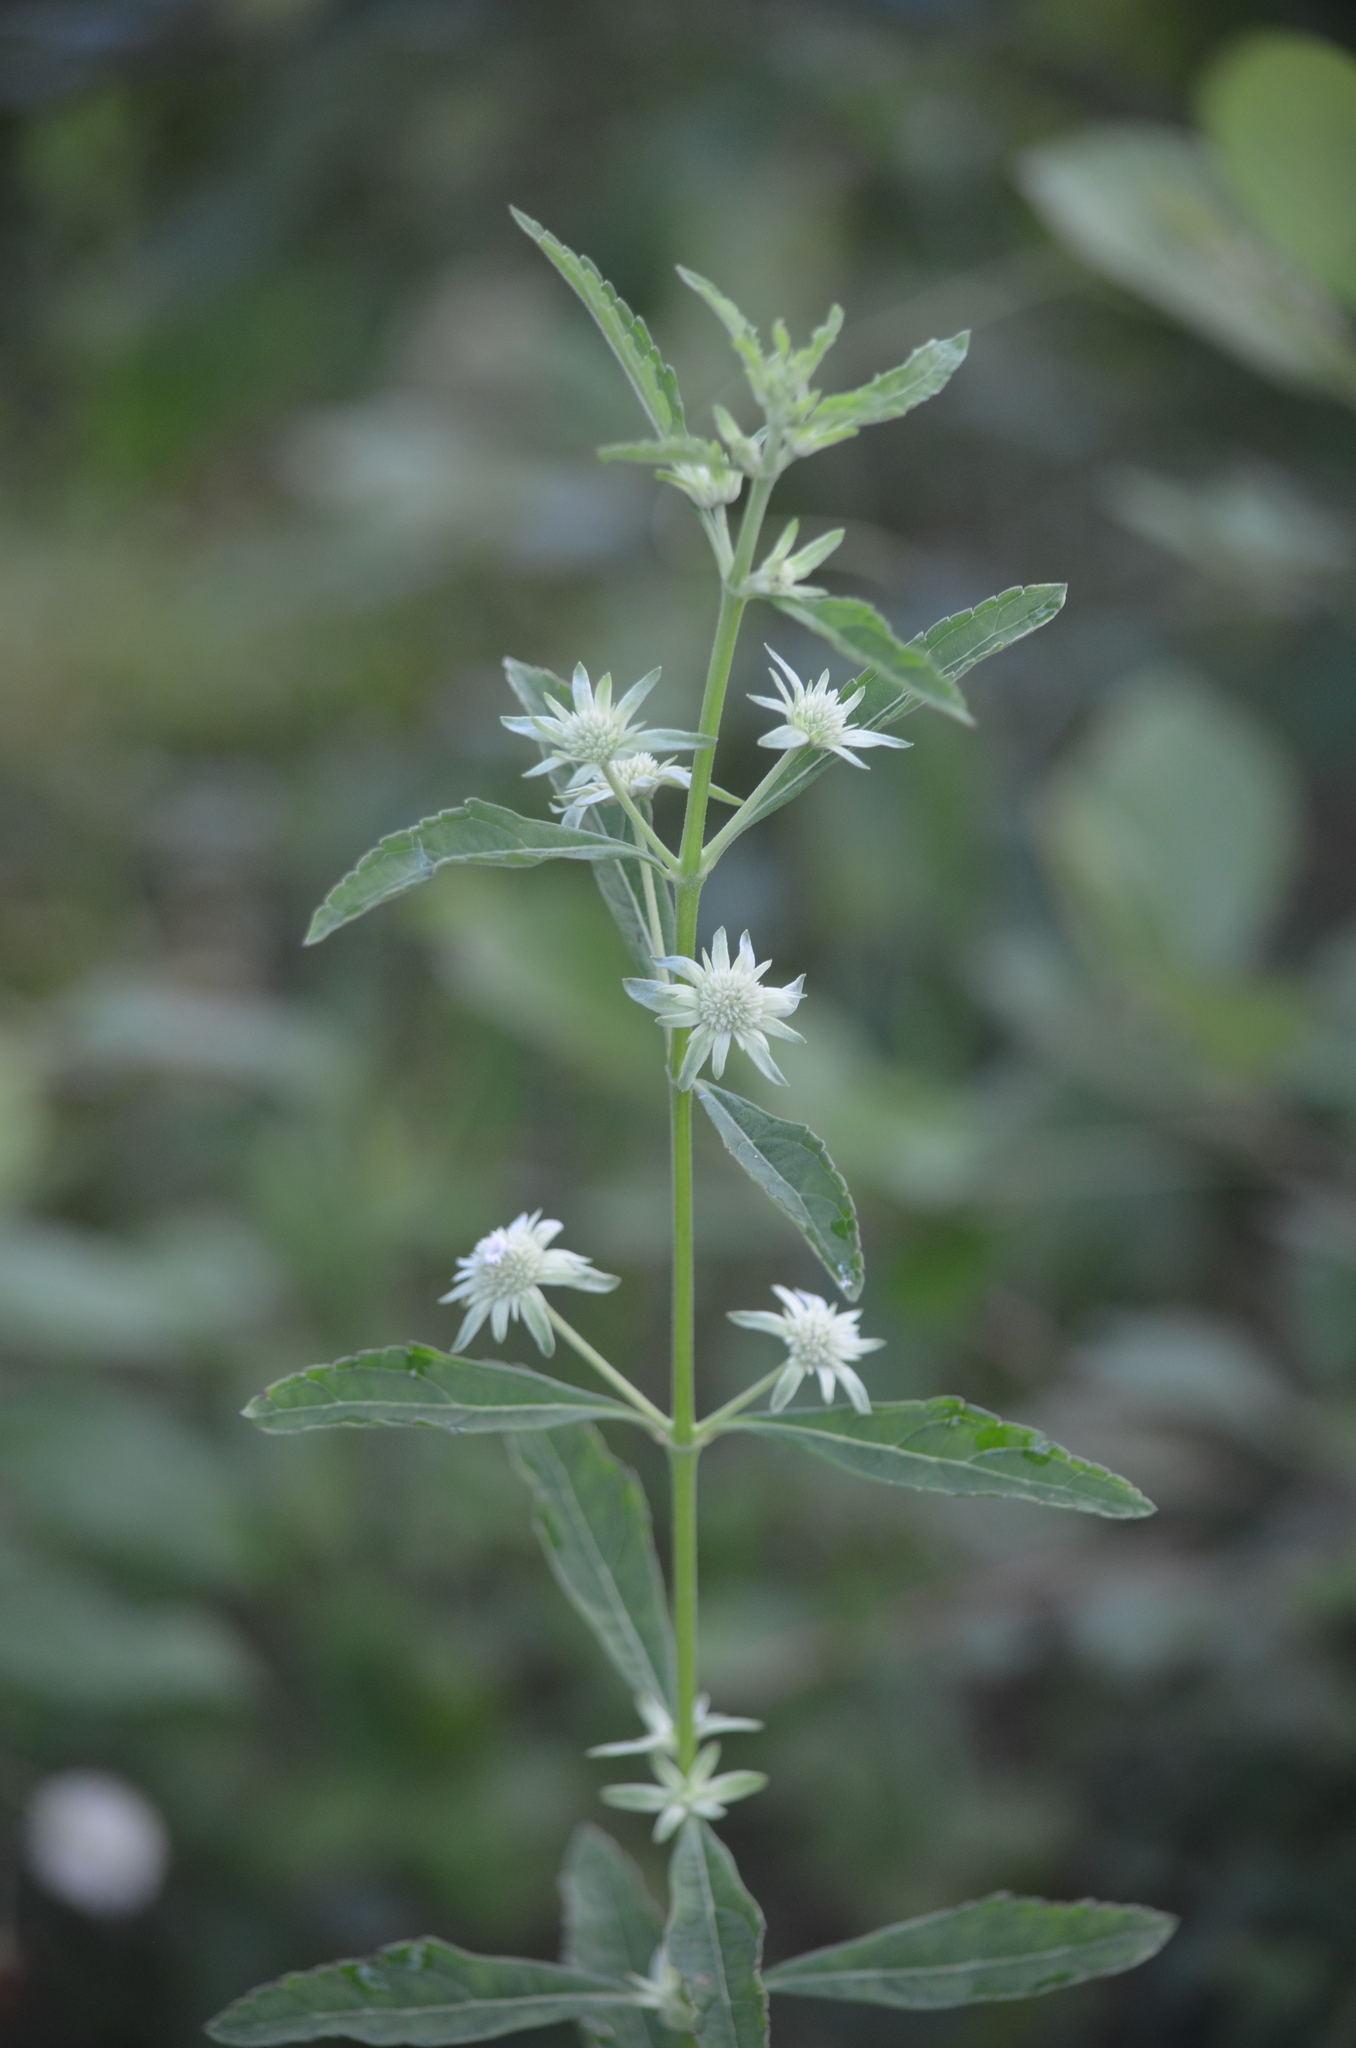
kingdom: Plantae
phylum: Tracheophyta
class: Magnoliopsida
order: Lamiales
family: Lamiaceae
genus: Hyptis
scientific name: Hyptis alata
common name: Cluster bush-mint
